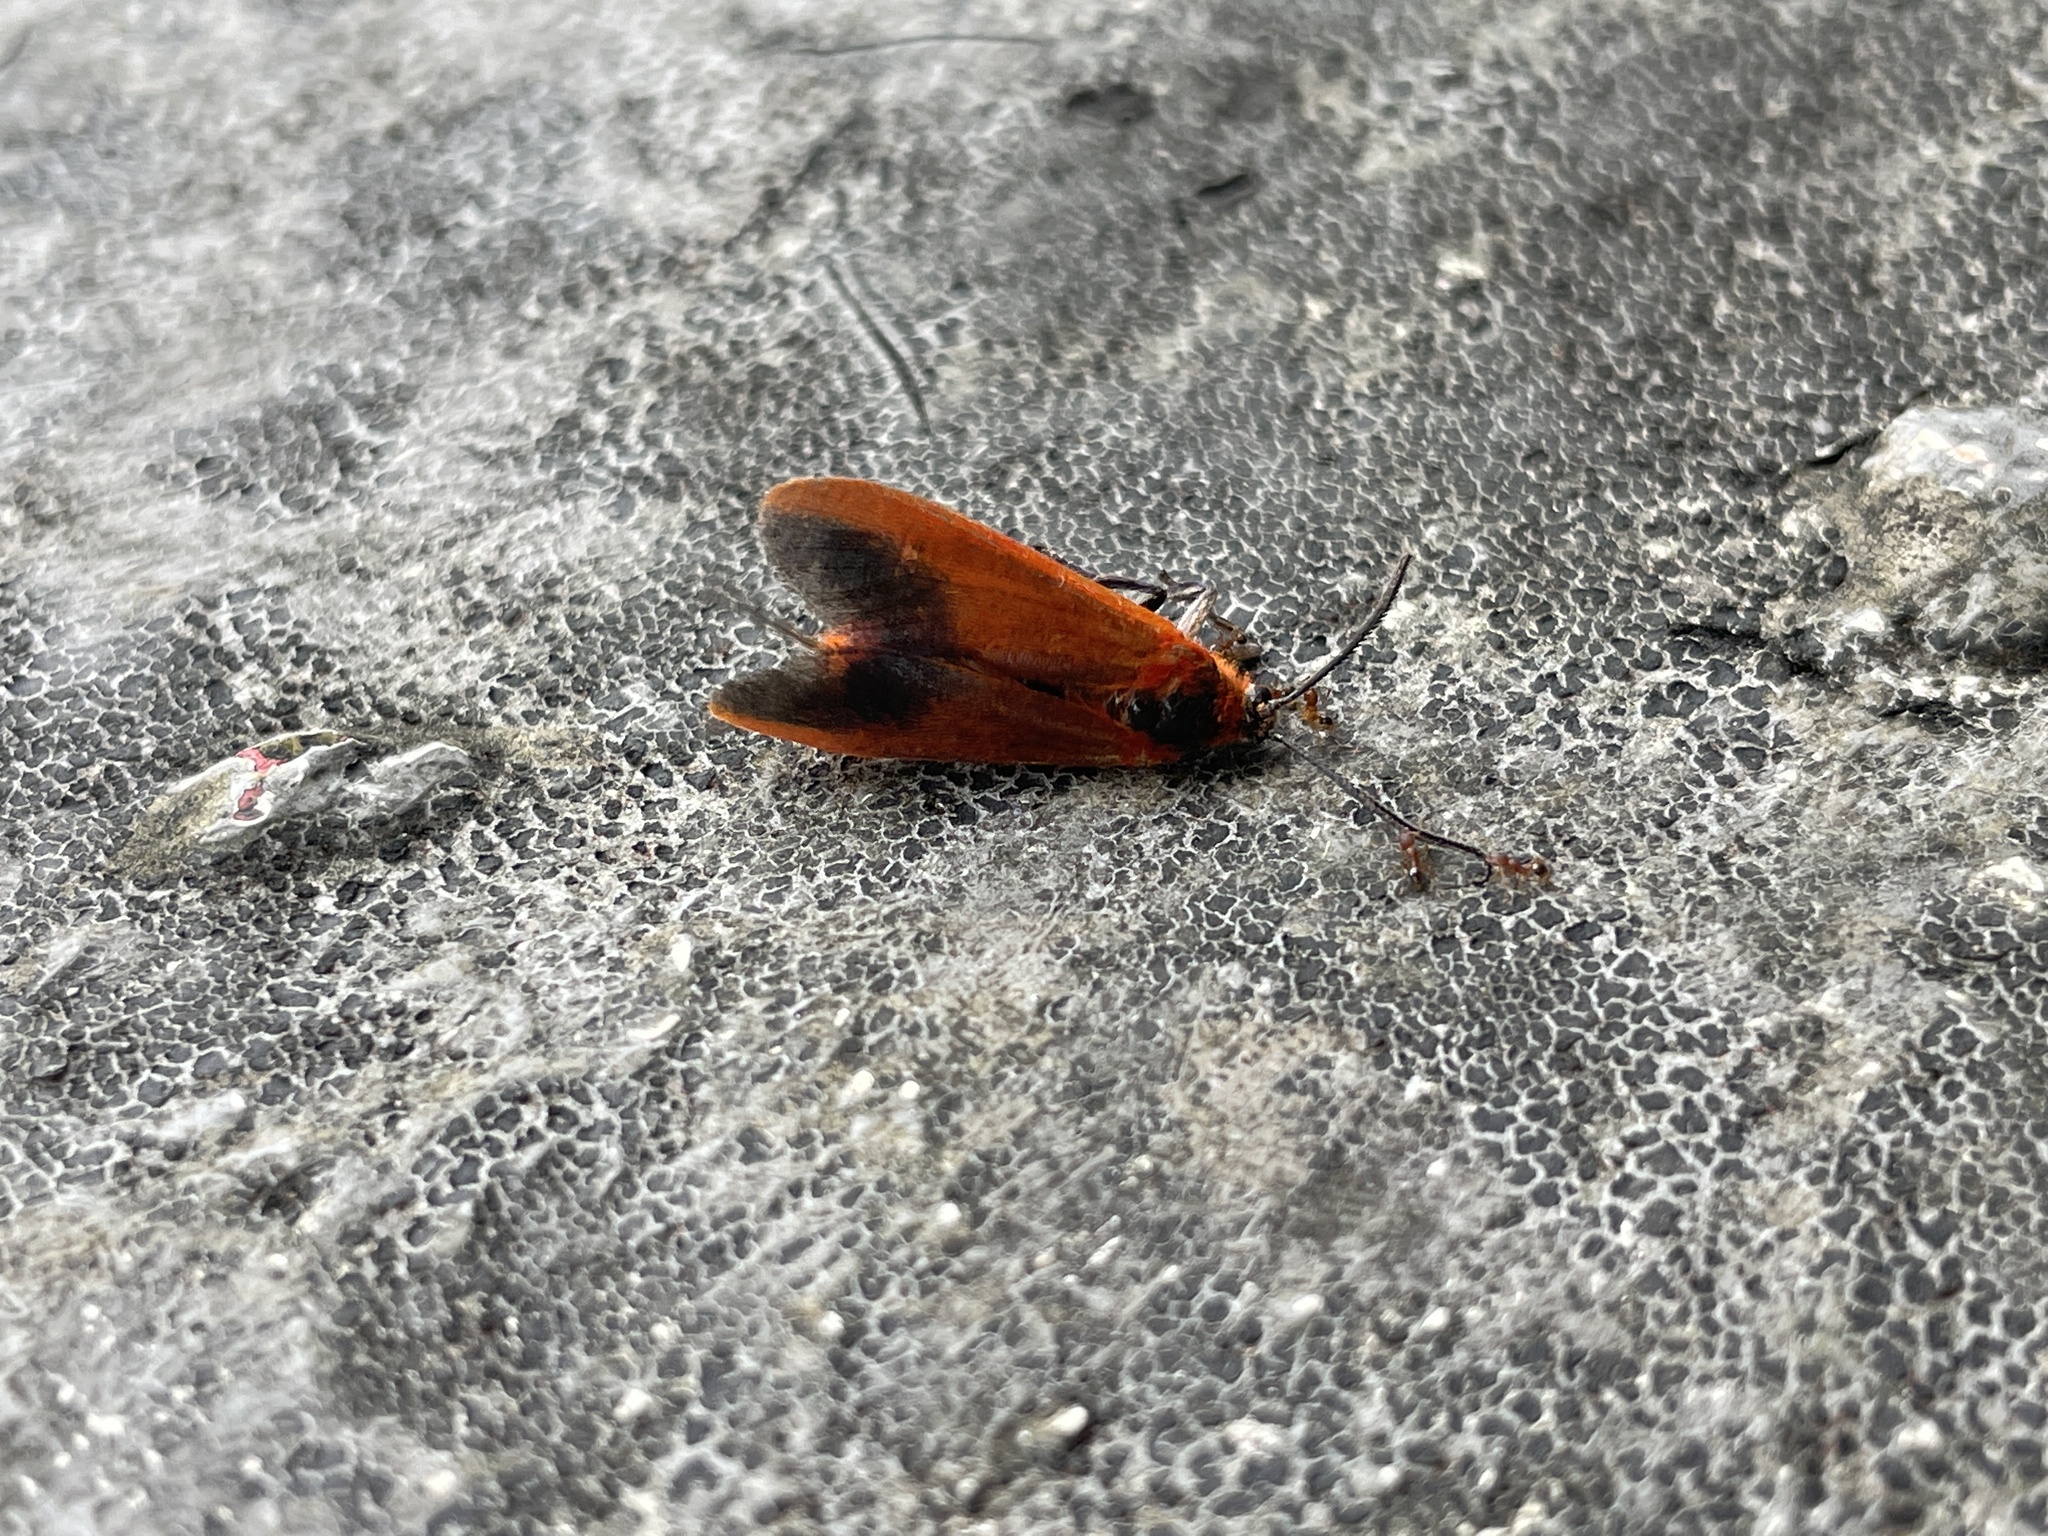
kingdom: Animalia
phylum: Arthropoda
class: Insecta
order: Lepidoptera
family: Phaudidae
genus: Phauda
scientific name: Phauda flammans
